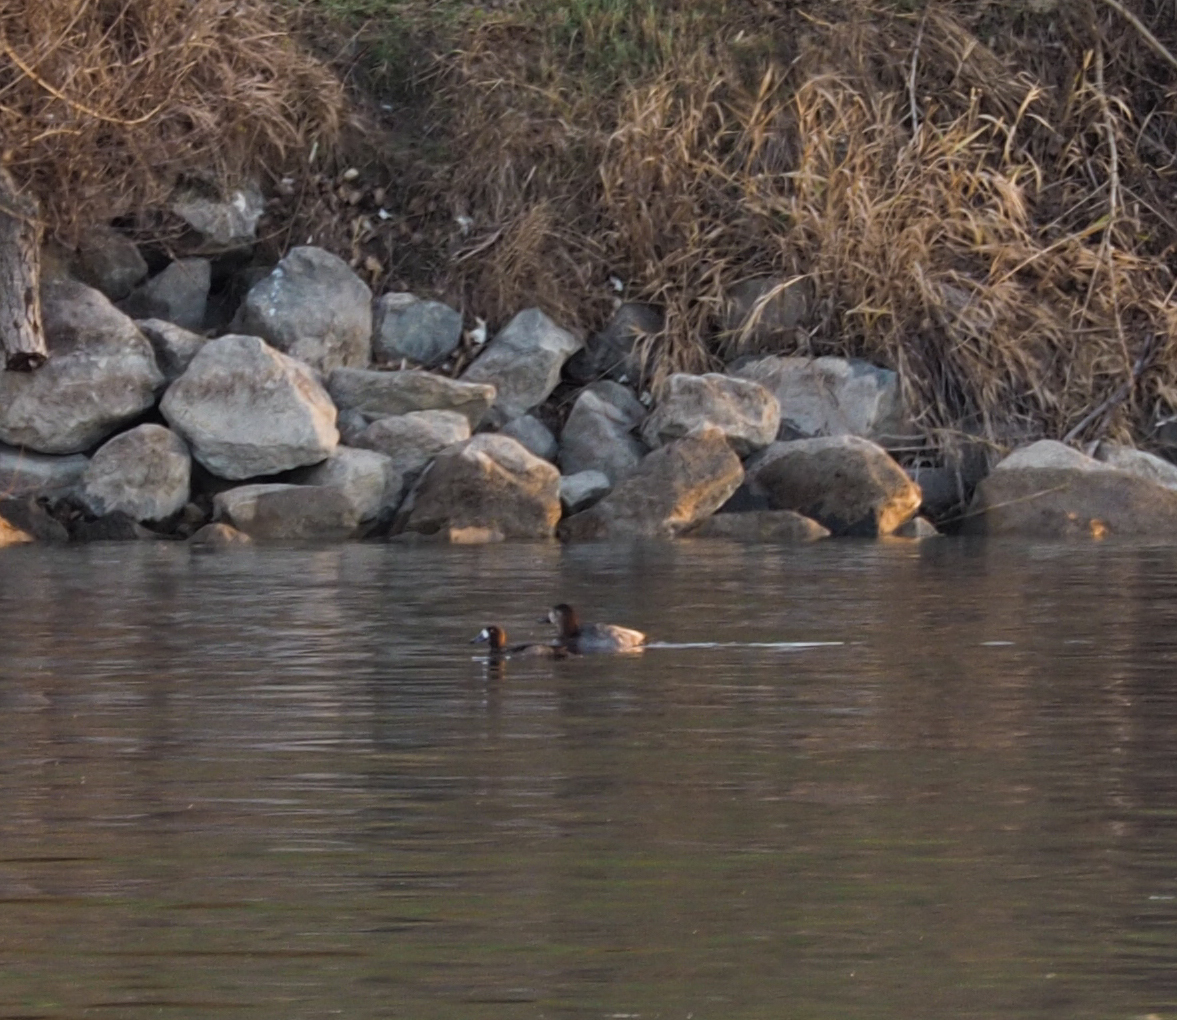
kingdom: Animalia
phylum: Chordata
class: Aves
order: Anseriformes
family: Anatidae
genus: Aythya
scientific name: Aythya marila
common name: Greater scaup
